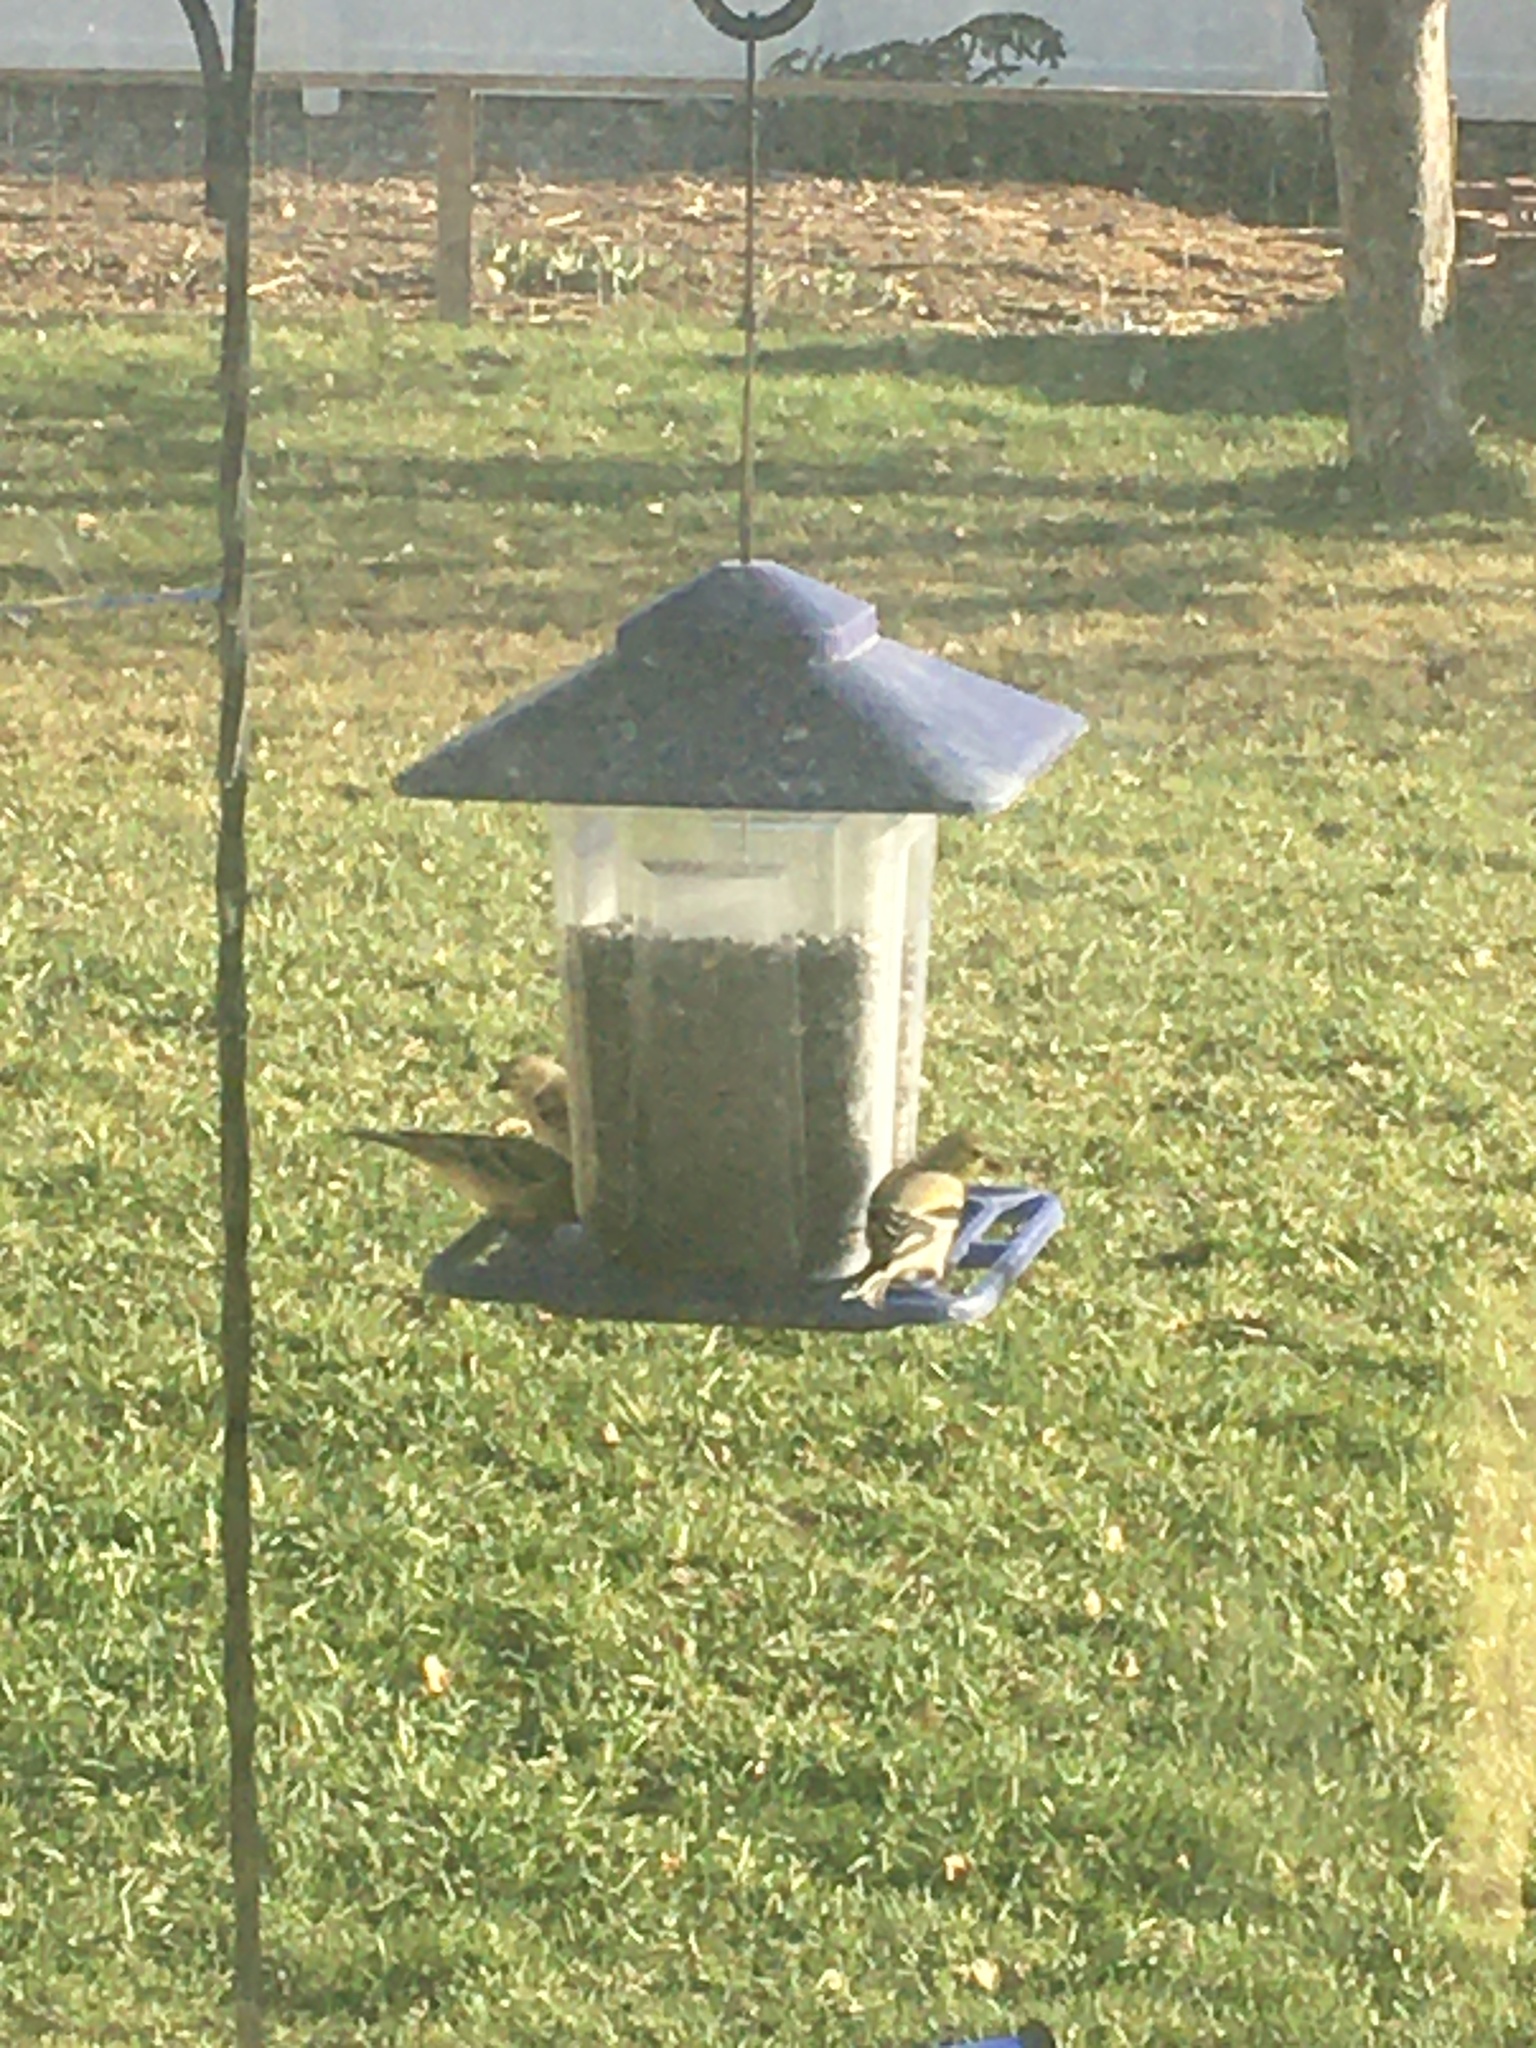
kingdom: Animalia
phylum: Chordata
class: Aves
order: Passeriformes
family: Fringillidae
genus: Spinus
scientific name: Spinus tristis
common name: American goldfinch
